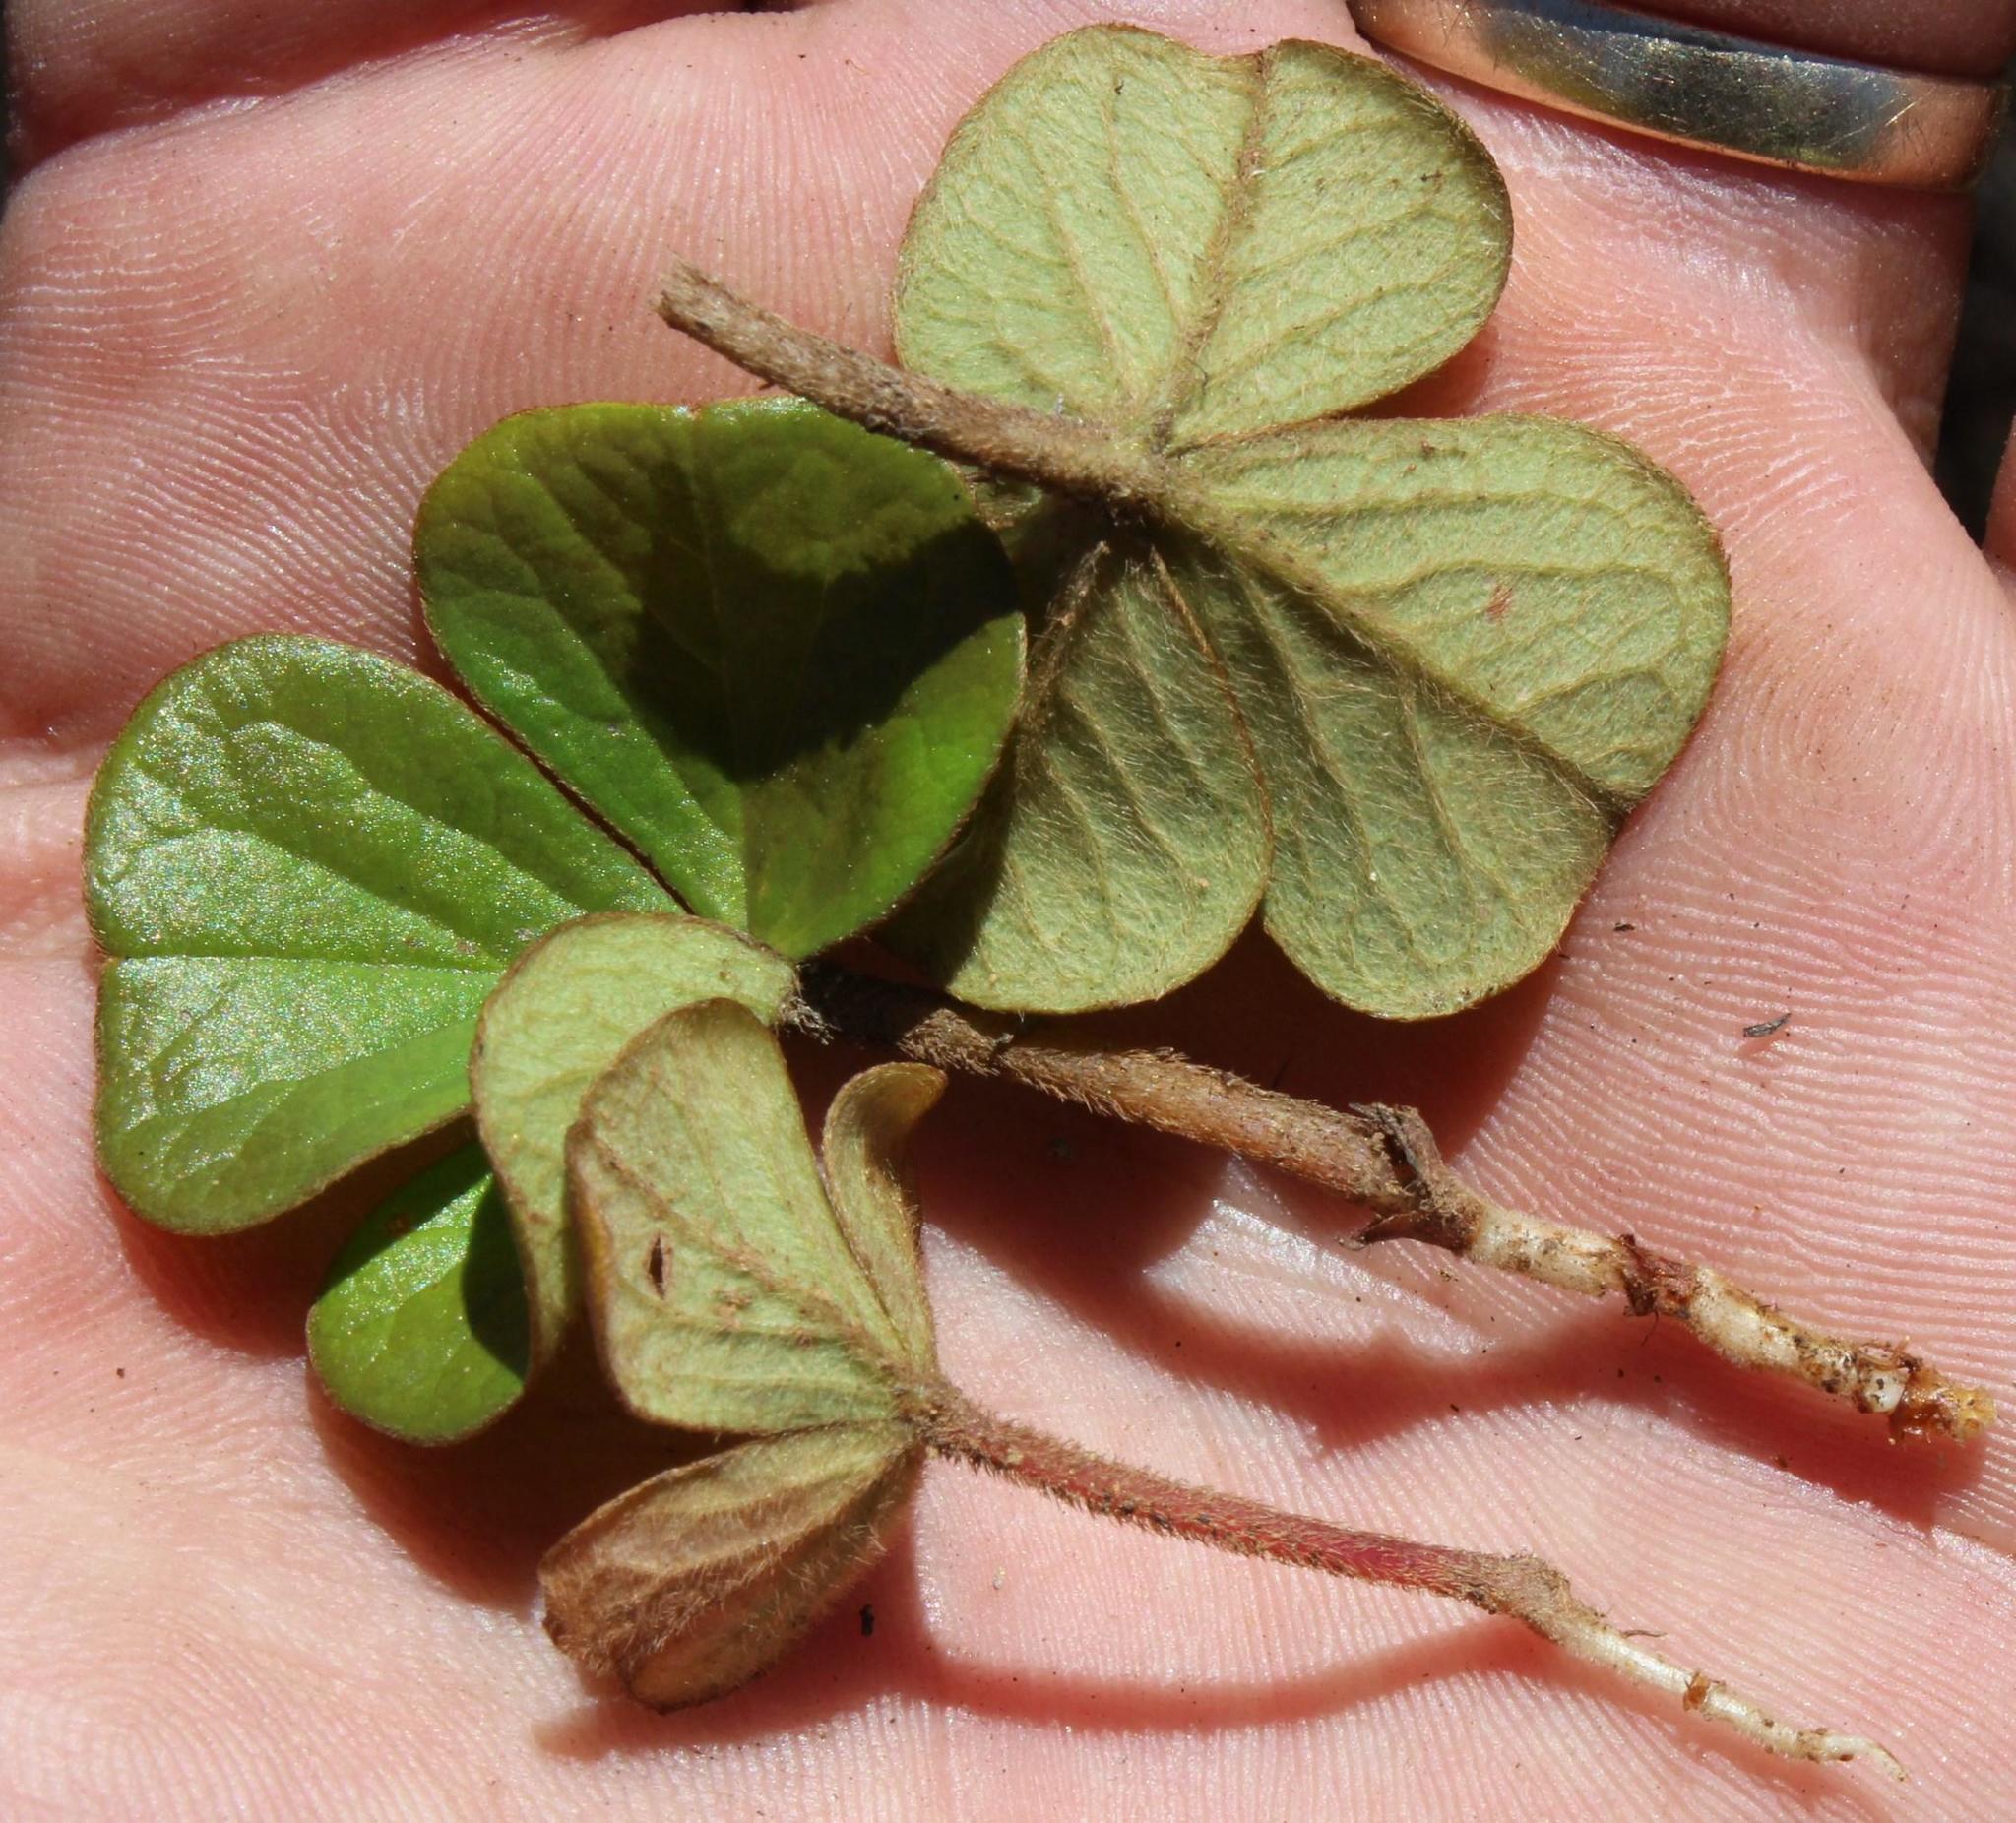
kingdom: Plantae
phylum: Tracheophyta
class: Magnoliopsida
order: Oxalidales
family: Oxalidaceae
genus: Oxalis
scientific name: Oxalis truncatula
